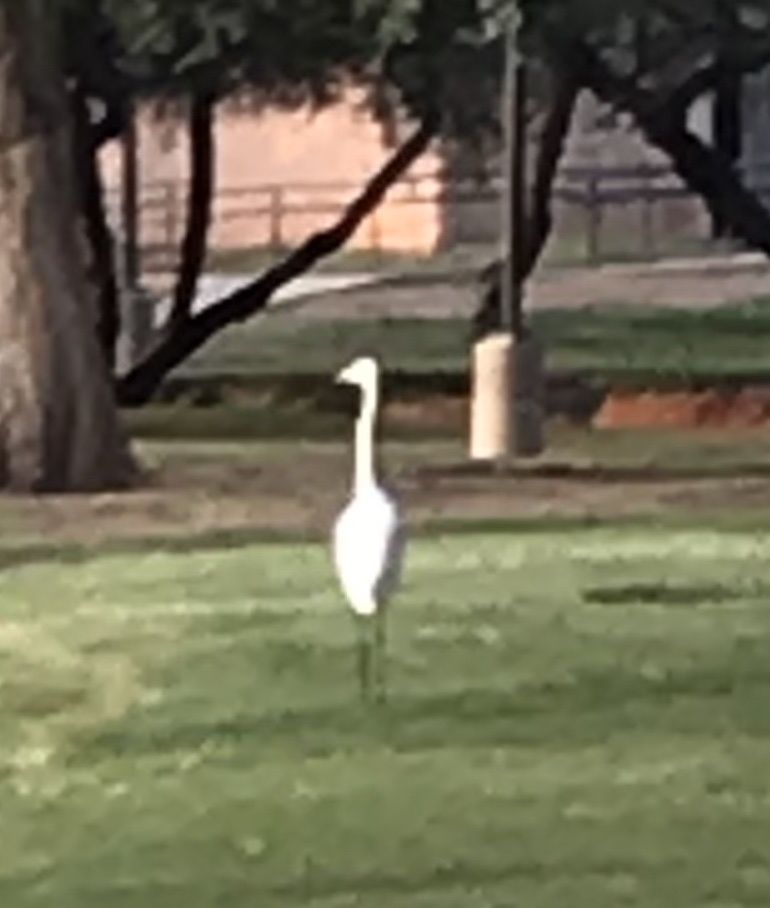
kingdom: Animalia
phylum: Chordata
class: Aves
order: Pelecaniformes
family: Ardeidae
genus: Ardea
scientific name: Ardea alba
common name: Great egret
